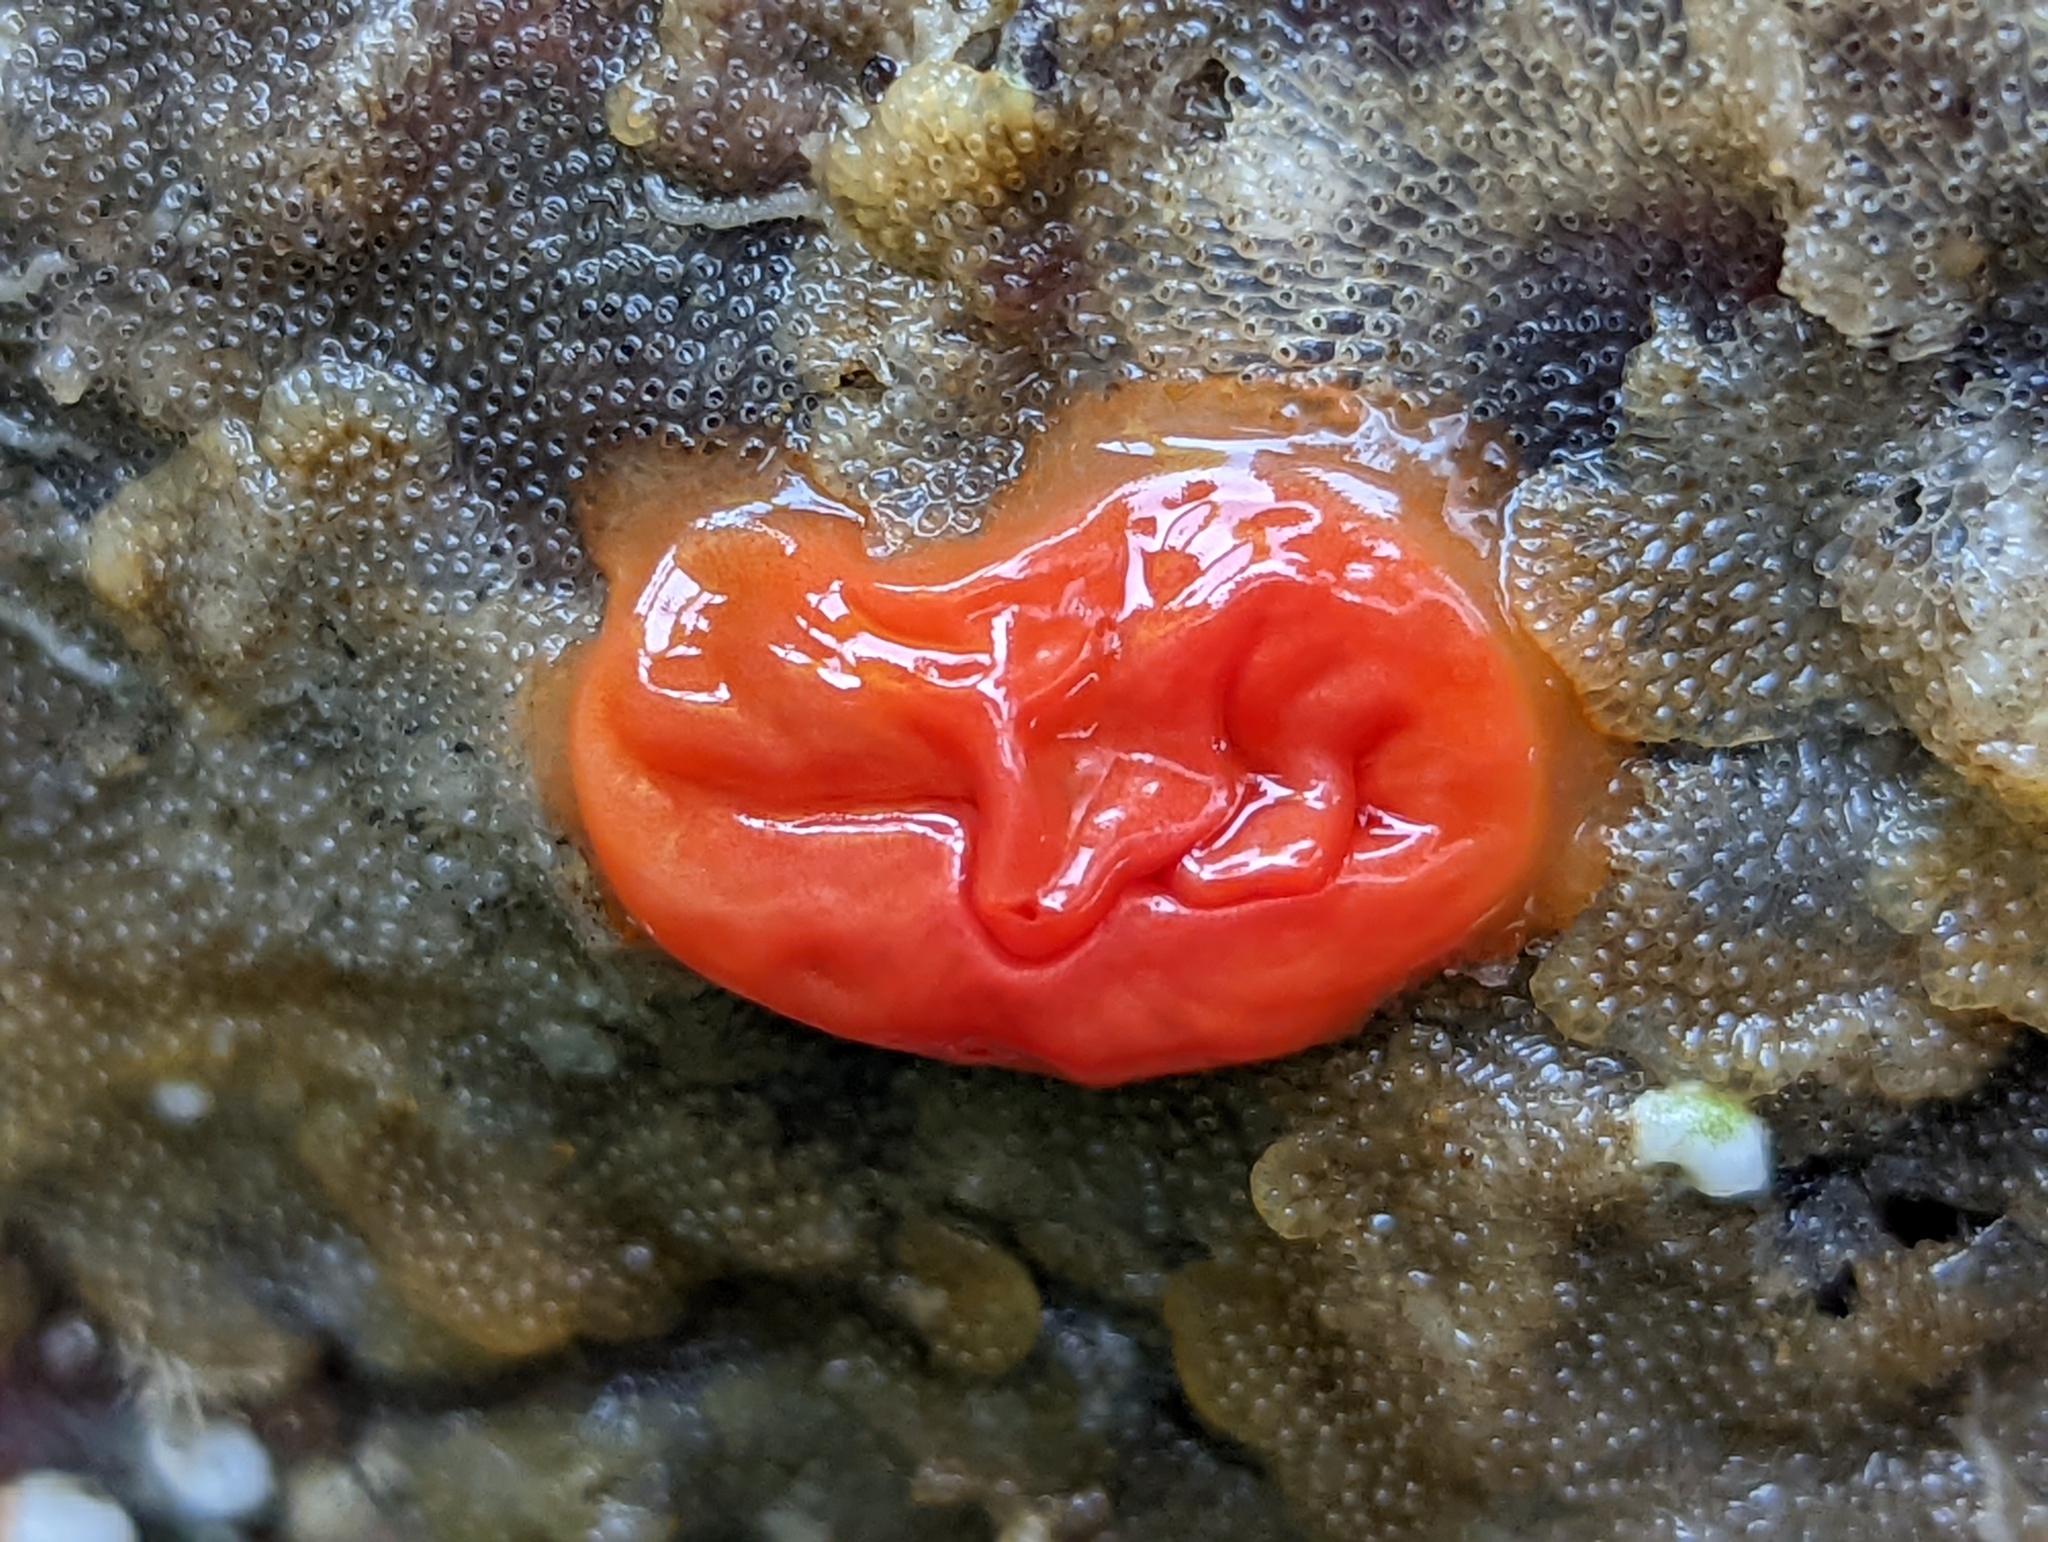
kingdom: Animalia
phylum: Chordata
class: Ascidiacea
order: Stolidobranchia
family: Styelidae
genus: Cnemidocarpa
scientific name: Cnemidocarpa finmarkiensis
